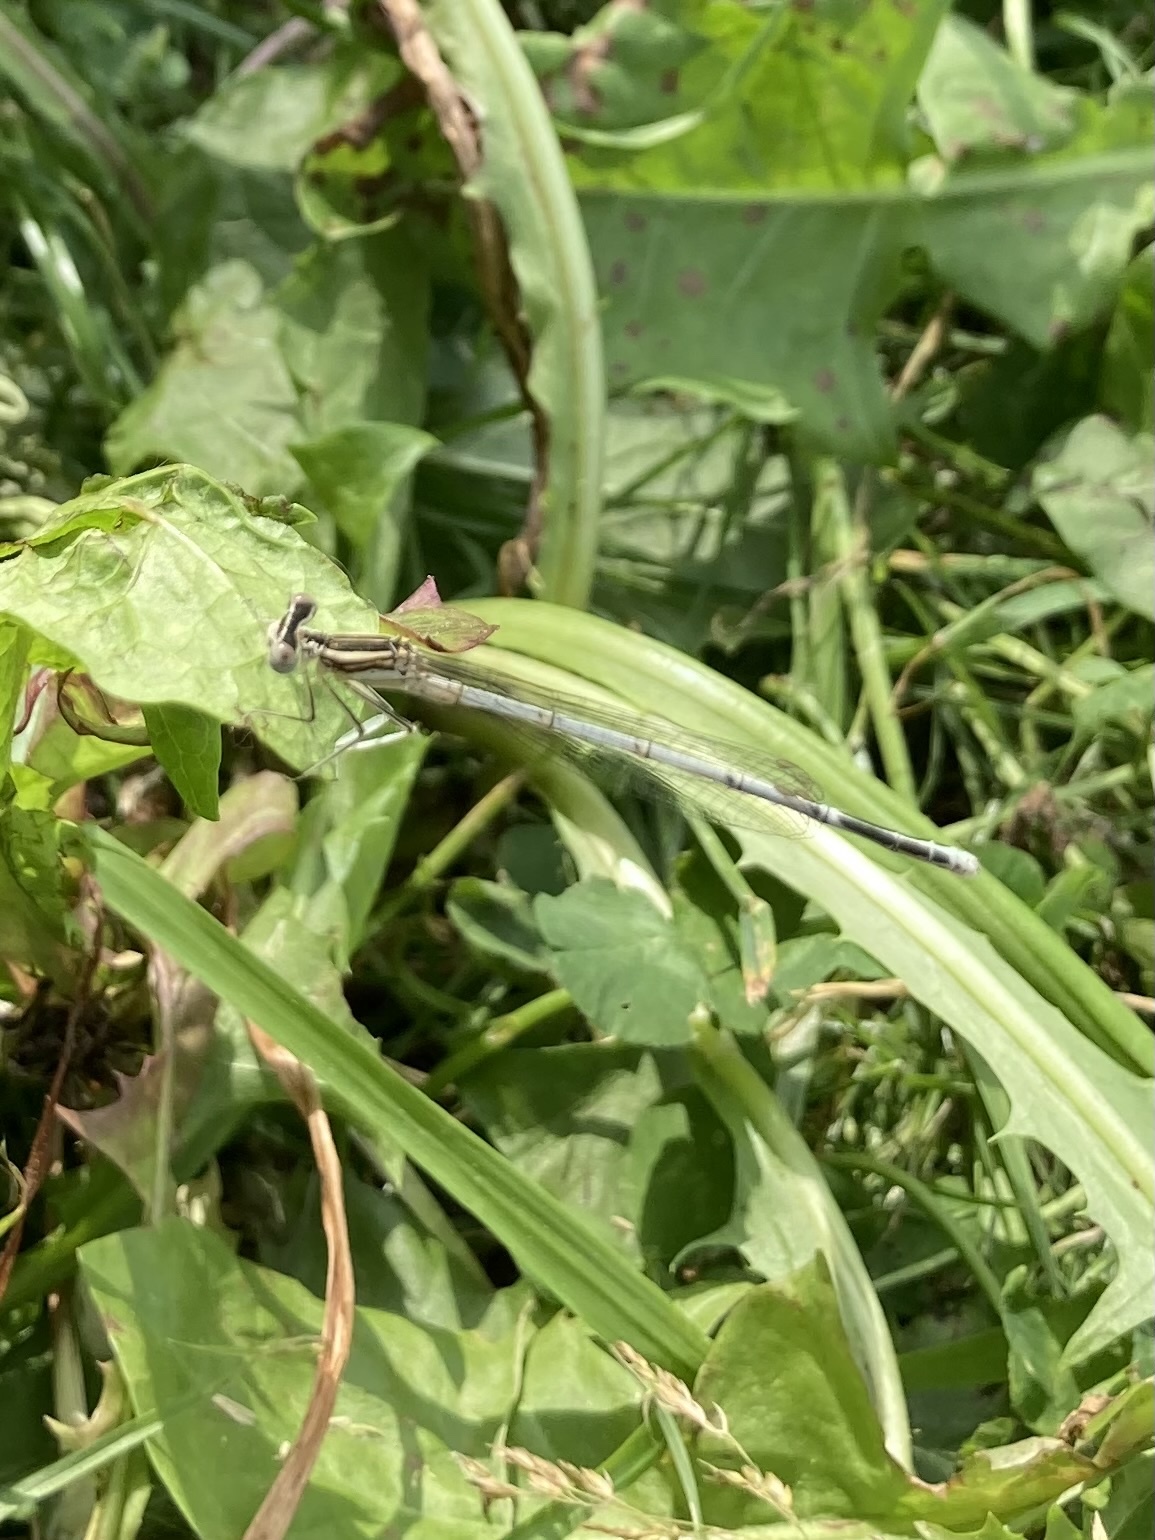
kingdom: Animalia
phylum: Arthropoda
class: Insecta
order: Odonata
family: Platycnemididae
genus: Platycnemis
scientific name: Platycnemis pennipes
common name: White-legged damselfly
